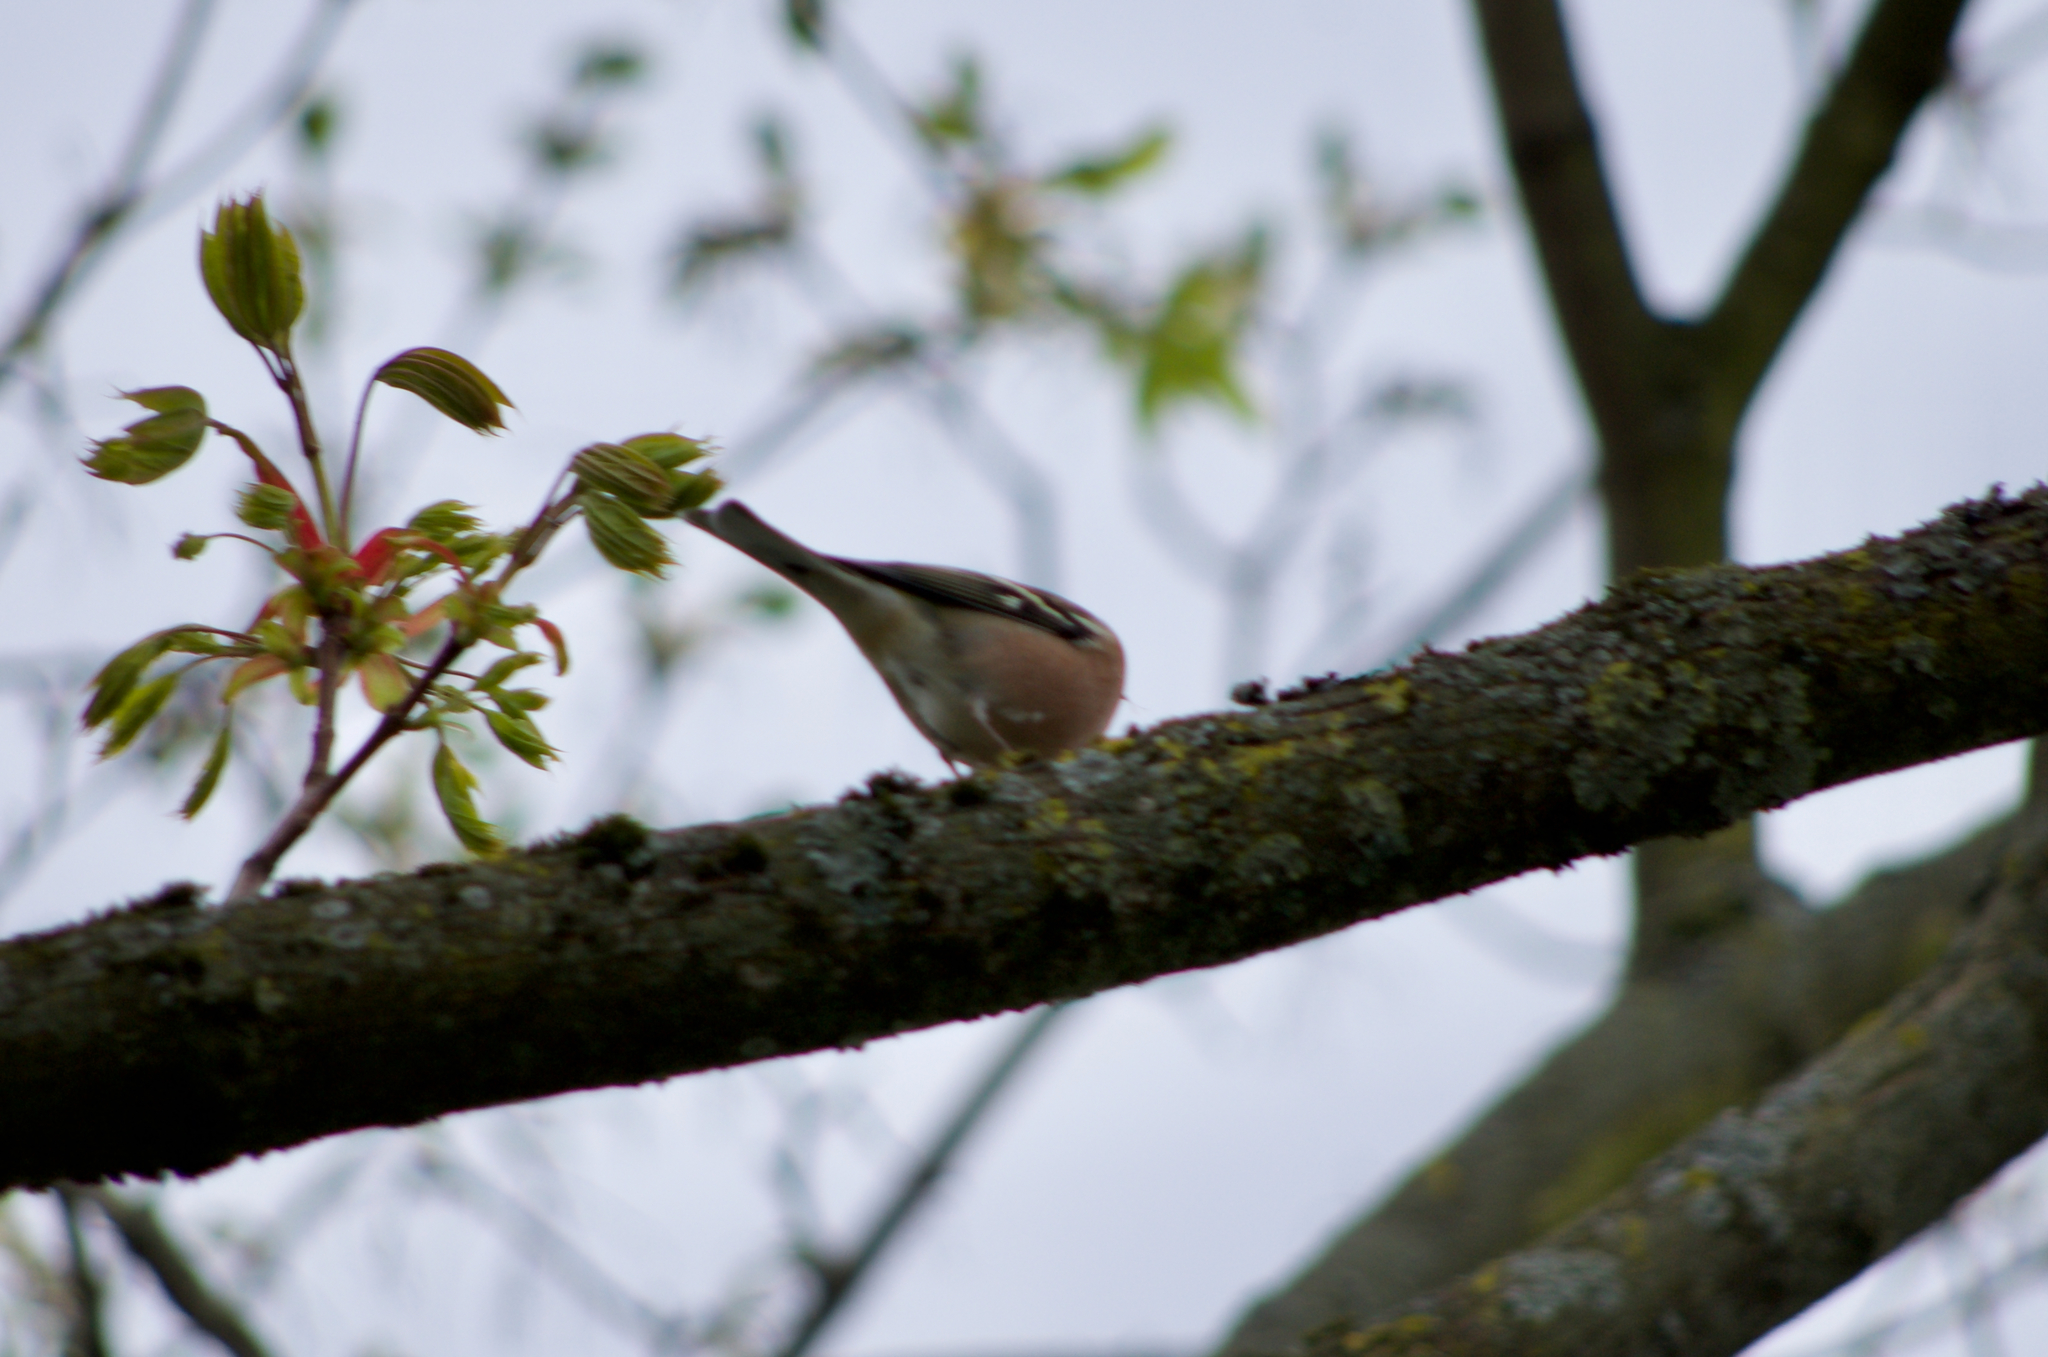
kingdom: Animalia
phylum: Chordata
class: Aves
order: Passeriformes
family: Fringillidae
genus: Fringilla
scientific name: Fringilla coelebs
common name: Common chaffinch
